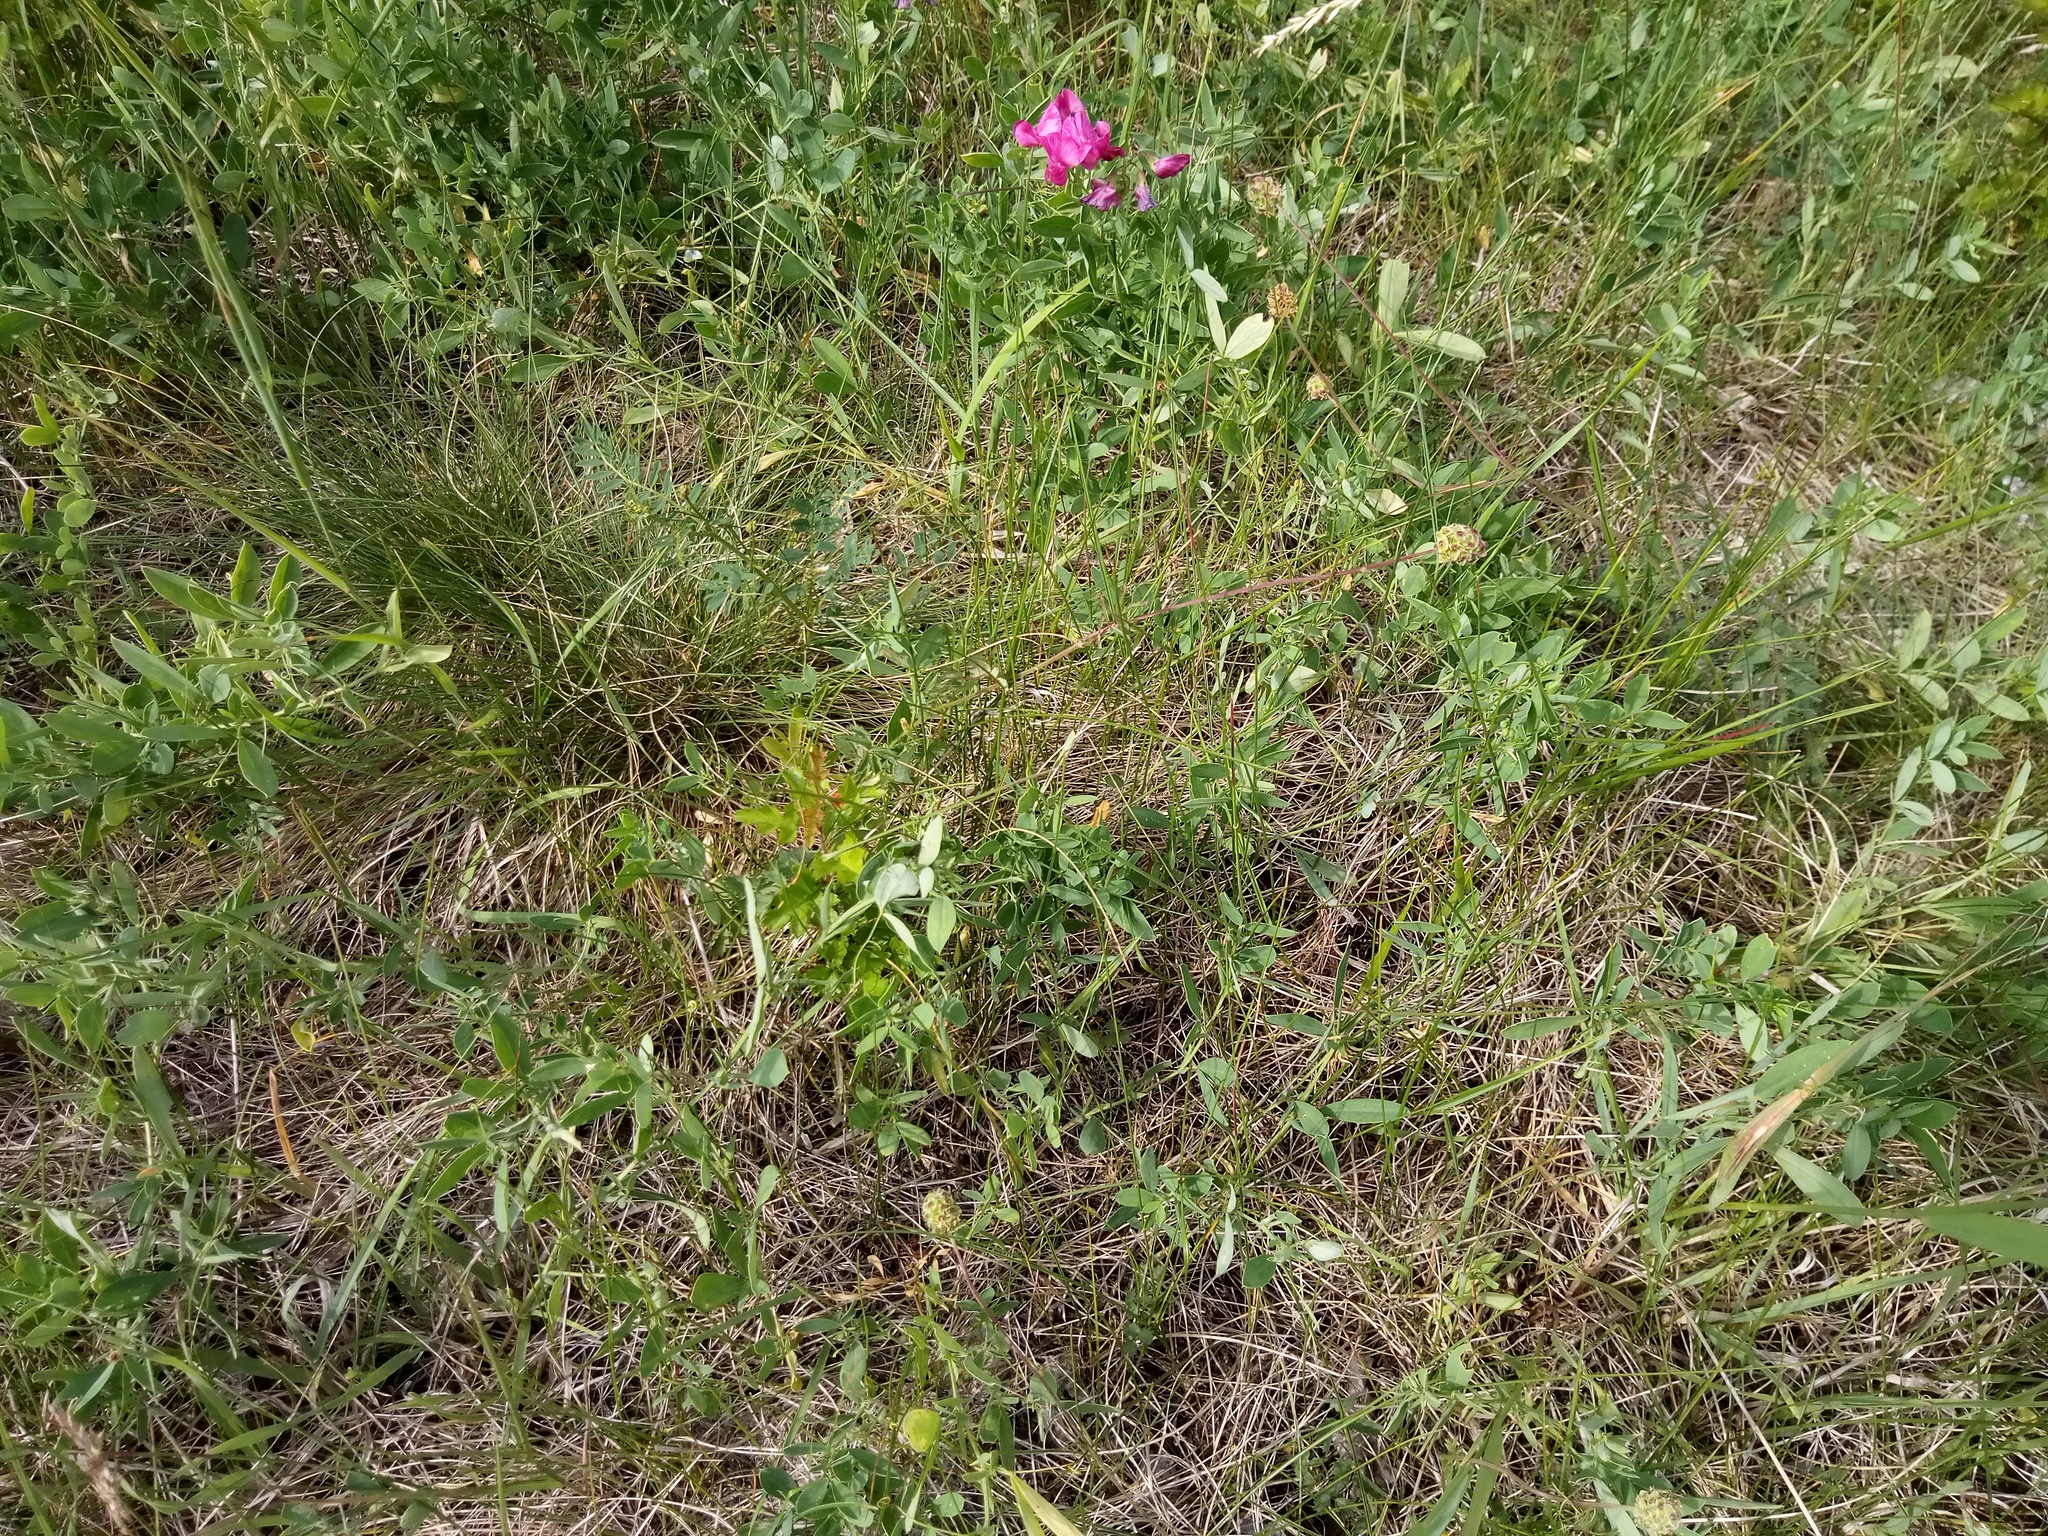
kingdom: Plantae
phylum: Tracheophyta
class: Magnoliopsida
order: Rosales
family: Rosaceae
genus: Poterium
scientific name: Poterium sanguisorba
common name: Salad burnet
